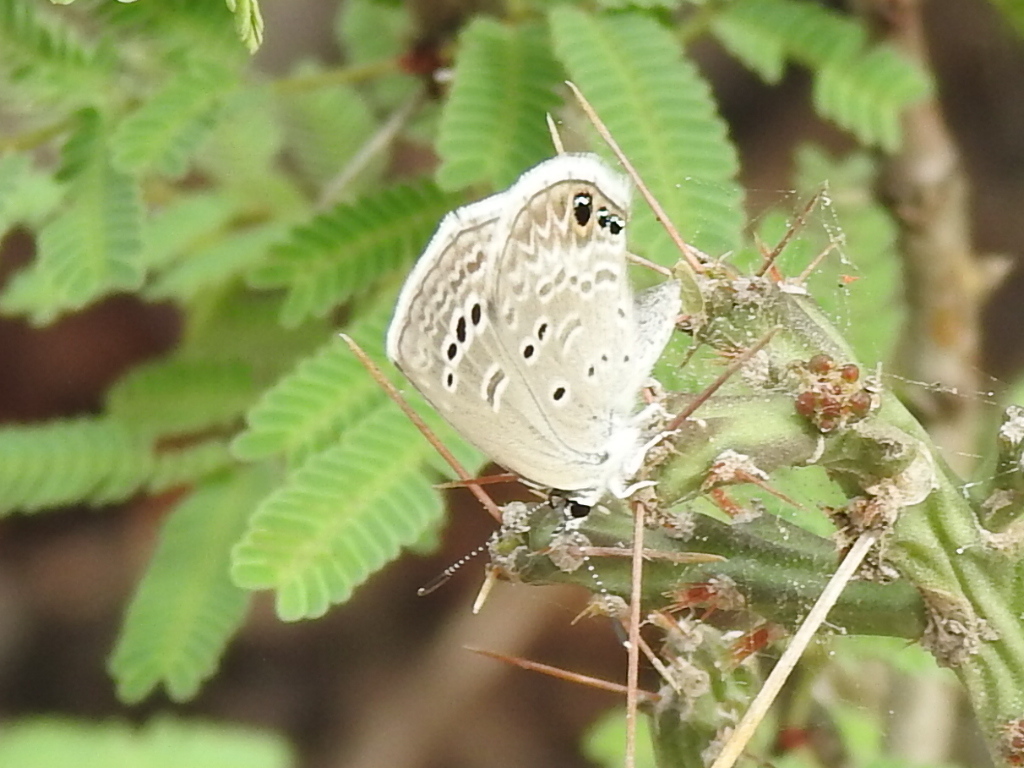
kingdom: Animalia
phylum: Arthropoda
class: Insecta
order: Lepidoptera
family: Lycaenidae
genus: Echinargus
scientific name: Echinargus isola
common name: Reakirt's blue
